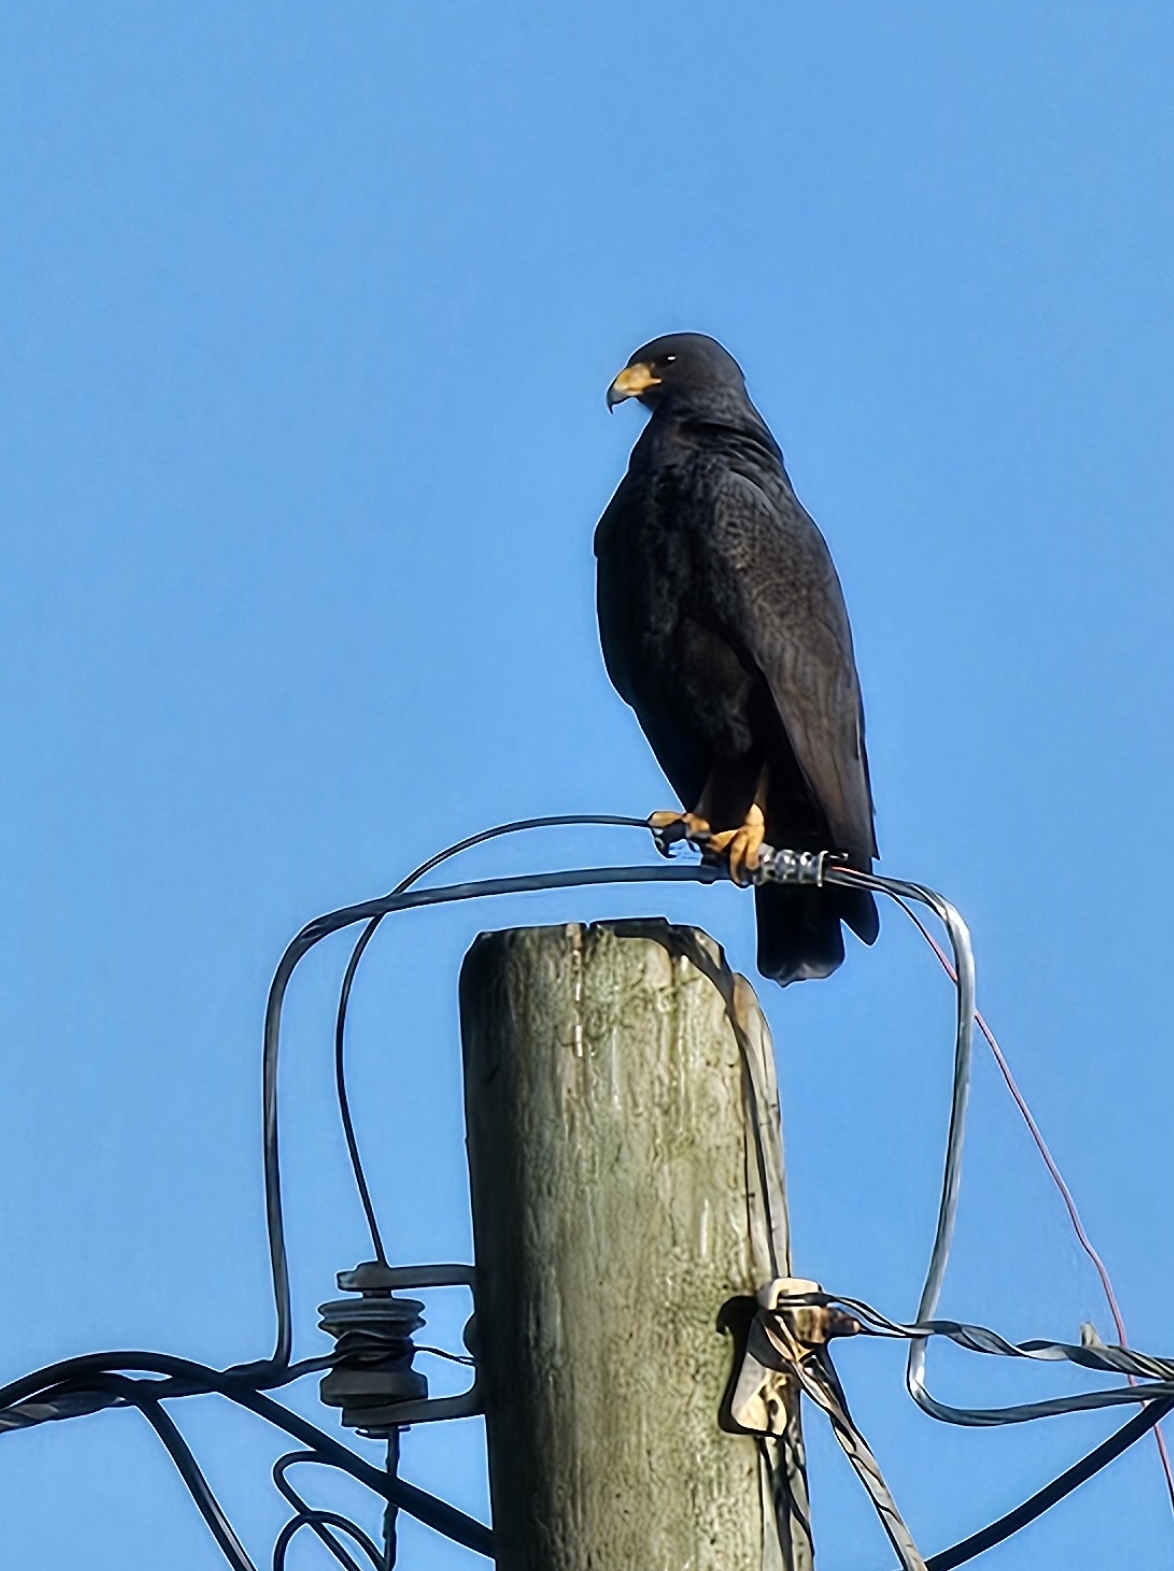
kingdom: Animalia
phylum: Chordata
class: Aves
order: Accipitriformes
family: Accipitridae
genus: Buteogallus
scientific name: Buteogallus anthracinus
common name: Common black hawk
